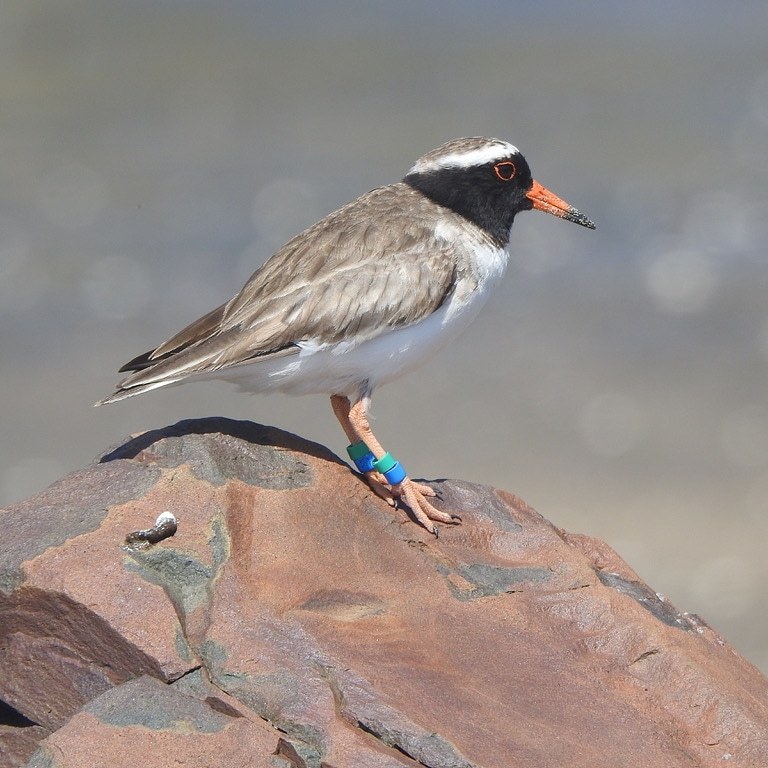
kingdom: Animalia
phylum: Chordata
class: Aves
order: Charadriiformes
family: Charadriidae
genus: Thinornis
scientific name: Thinornis novaeseelandiae
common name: Shore dotterel
